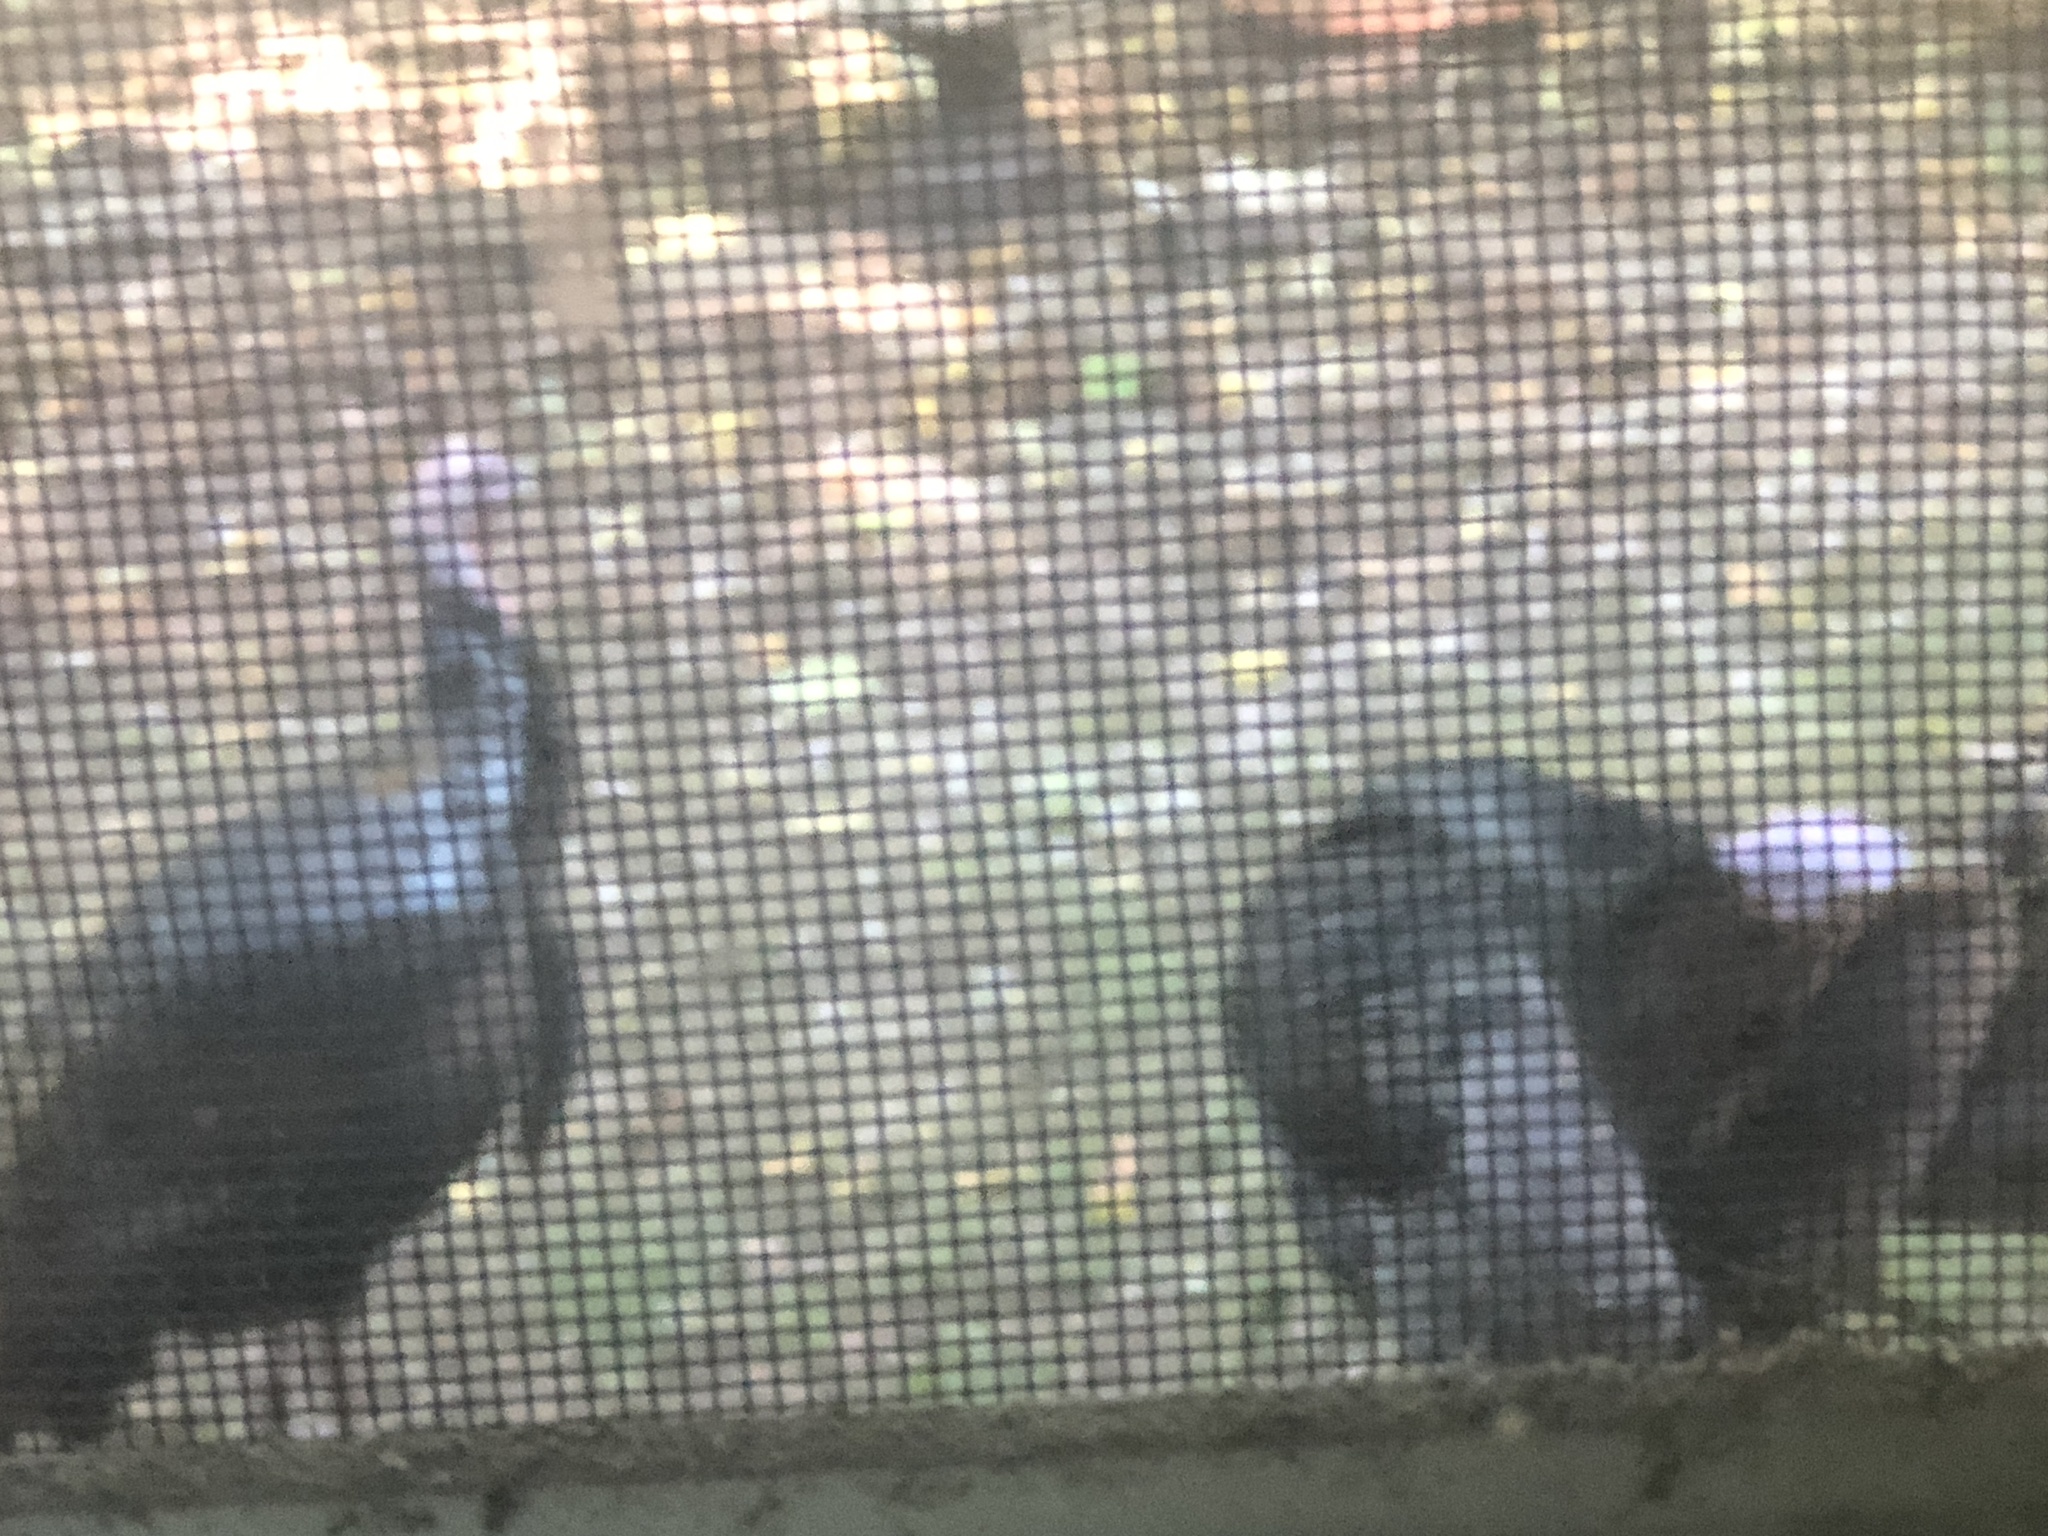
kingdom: Animalia
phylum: Chordata
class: Aves
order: Galliformes
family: Phasianidae
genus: Meleagris
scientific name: Meleagris gallopavo
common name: Wild turkey
